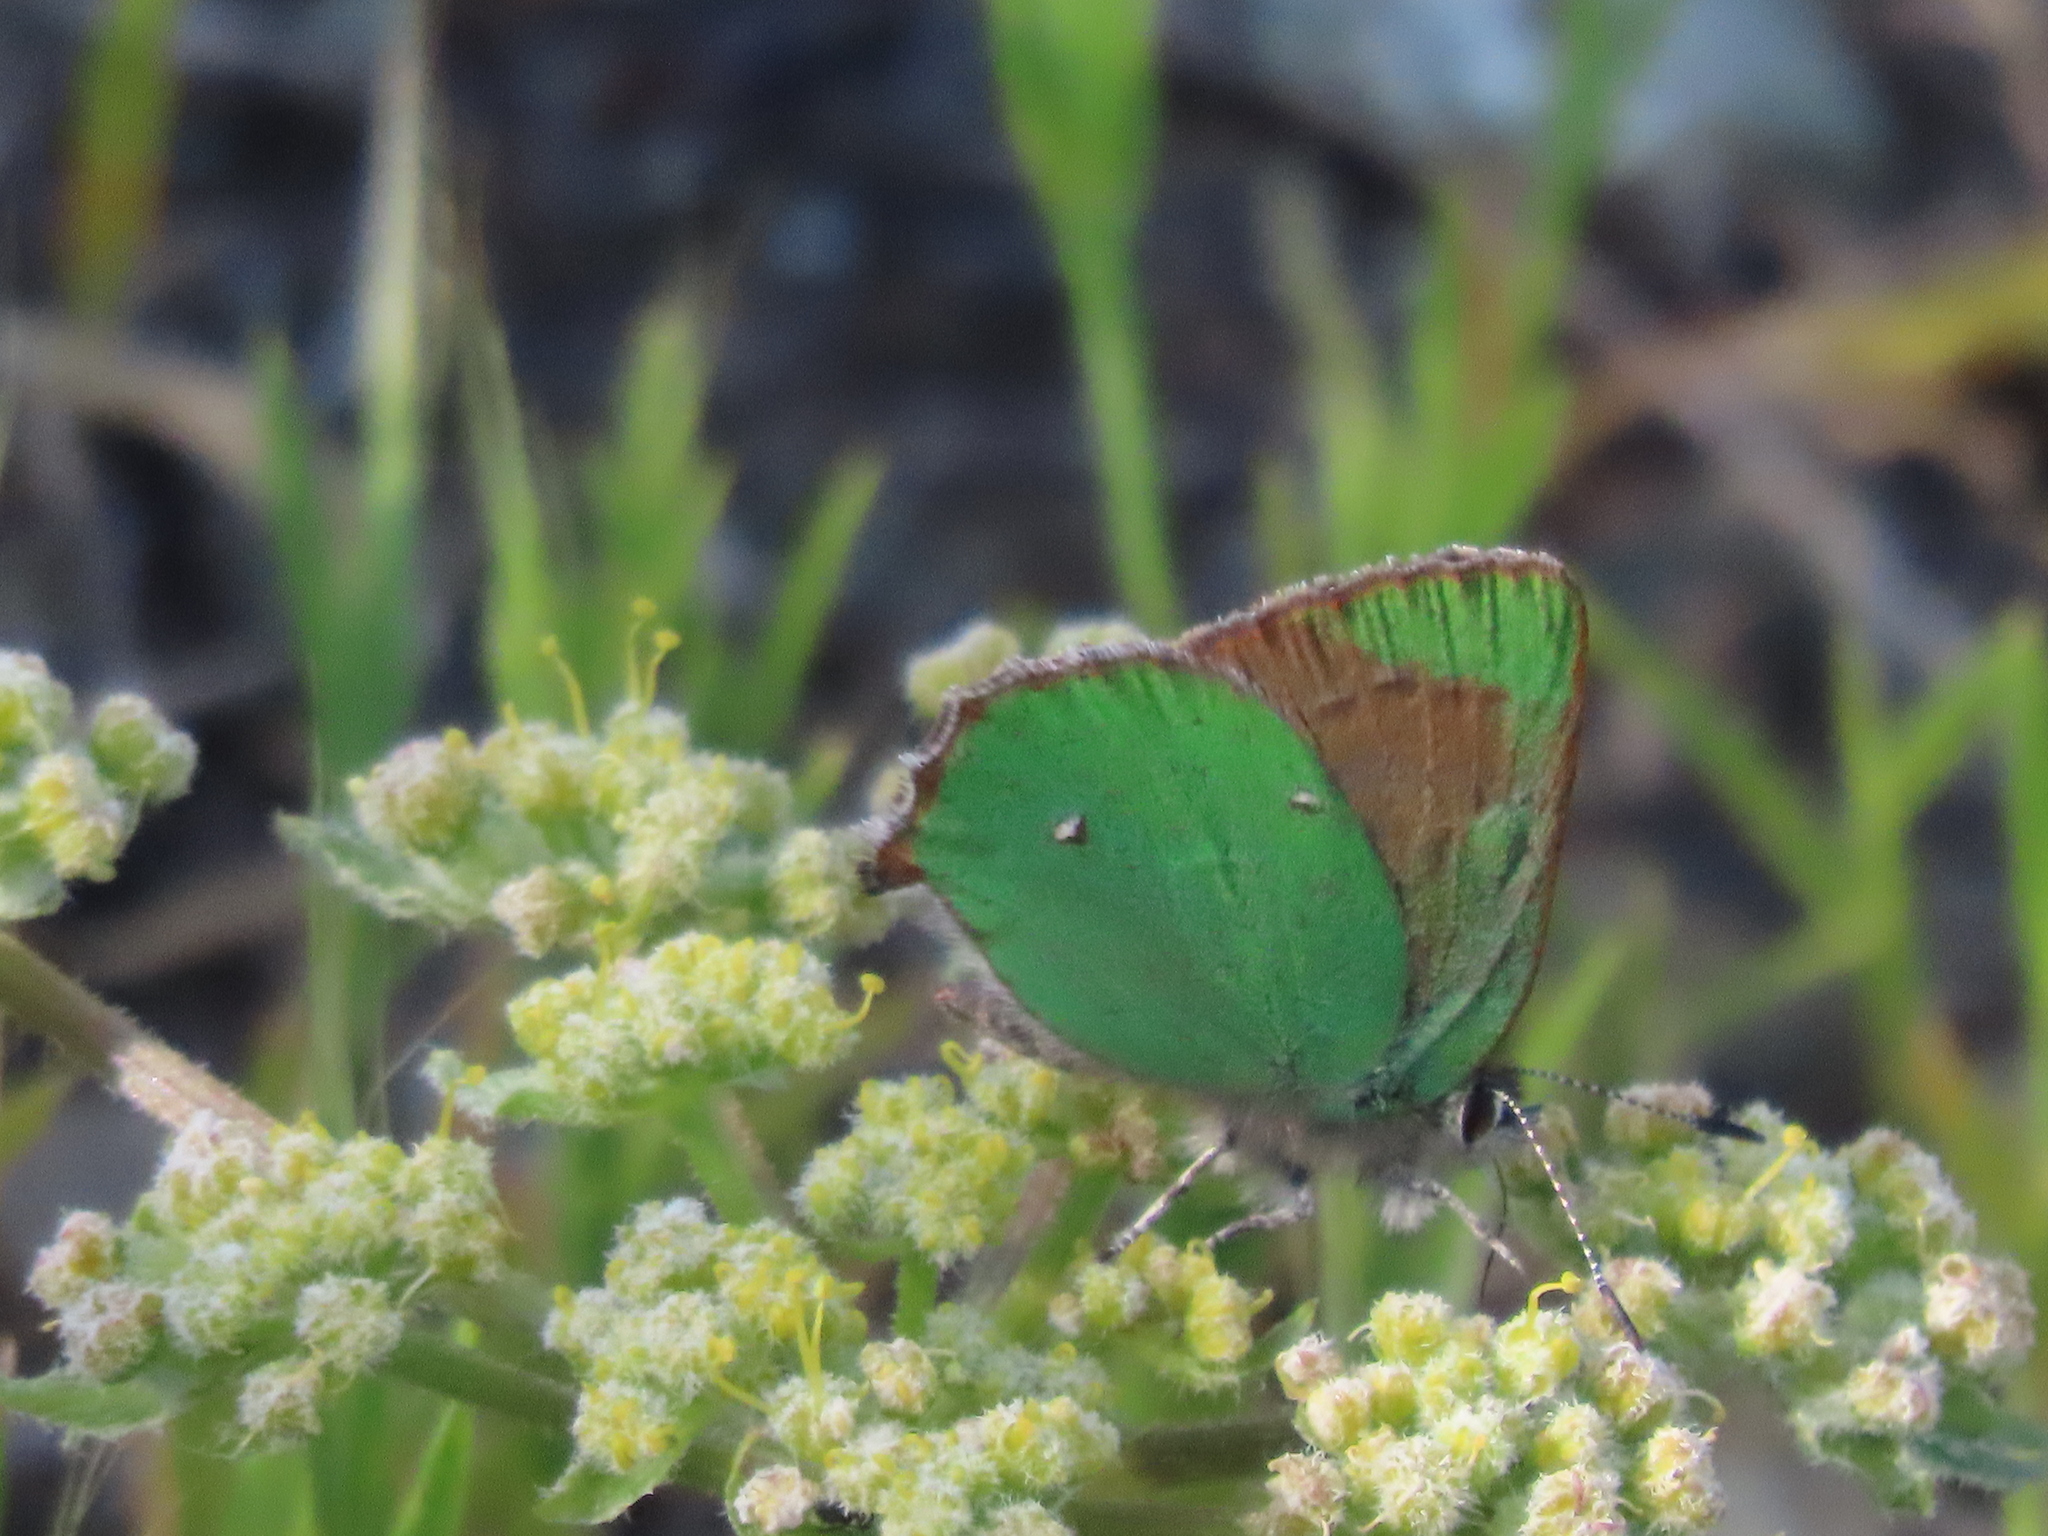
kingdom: Animalia
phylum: Arthropoda
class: Insecta
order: Lepidoptera
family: Lycaenidae
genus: Callophrys
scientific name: Callophrys dumetorum
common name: Bramble hairstreak
